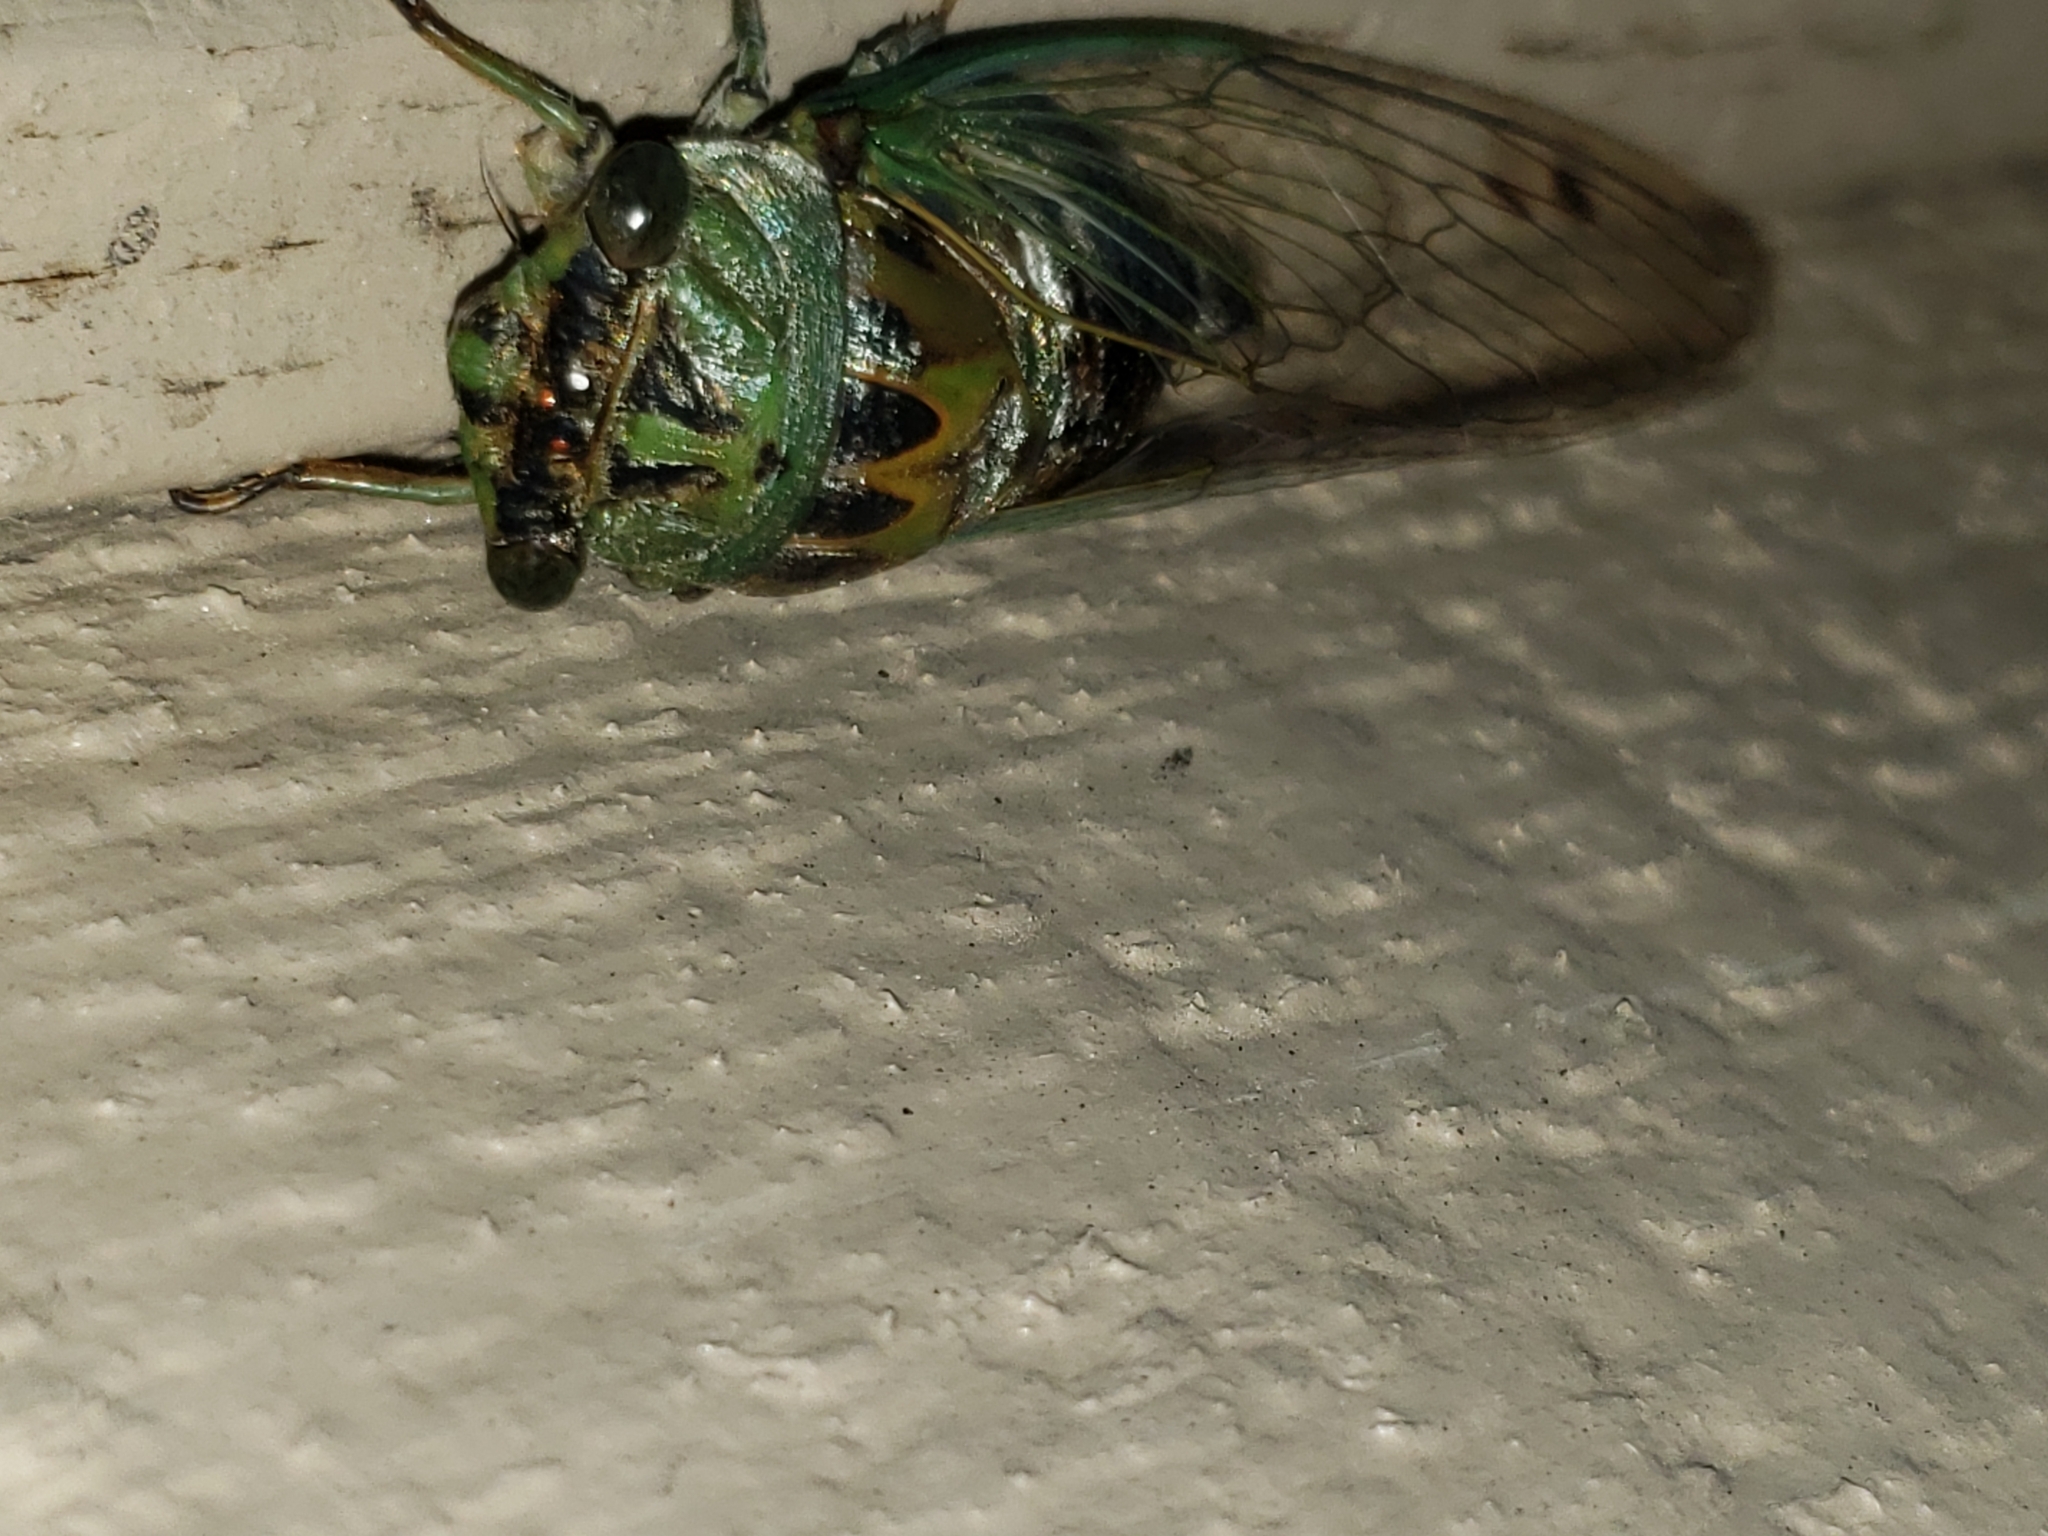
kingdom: Animalia
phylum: Arthropoda
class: Insecta
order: Hemiptera
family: Cicadidae
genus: Neotibicen
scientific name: Neotibicen winnemanna
